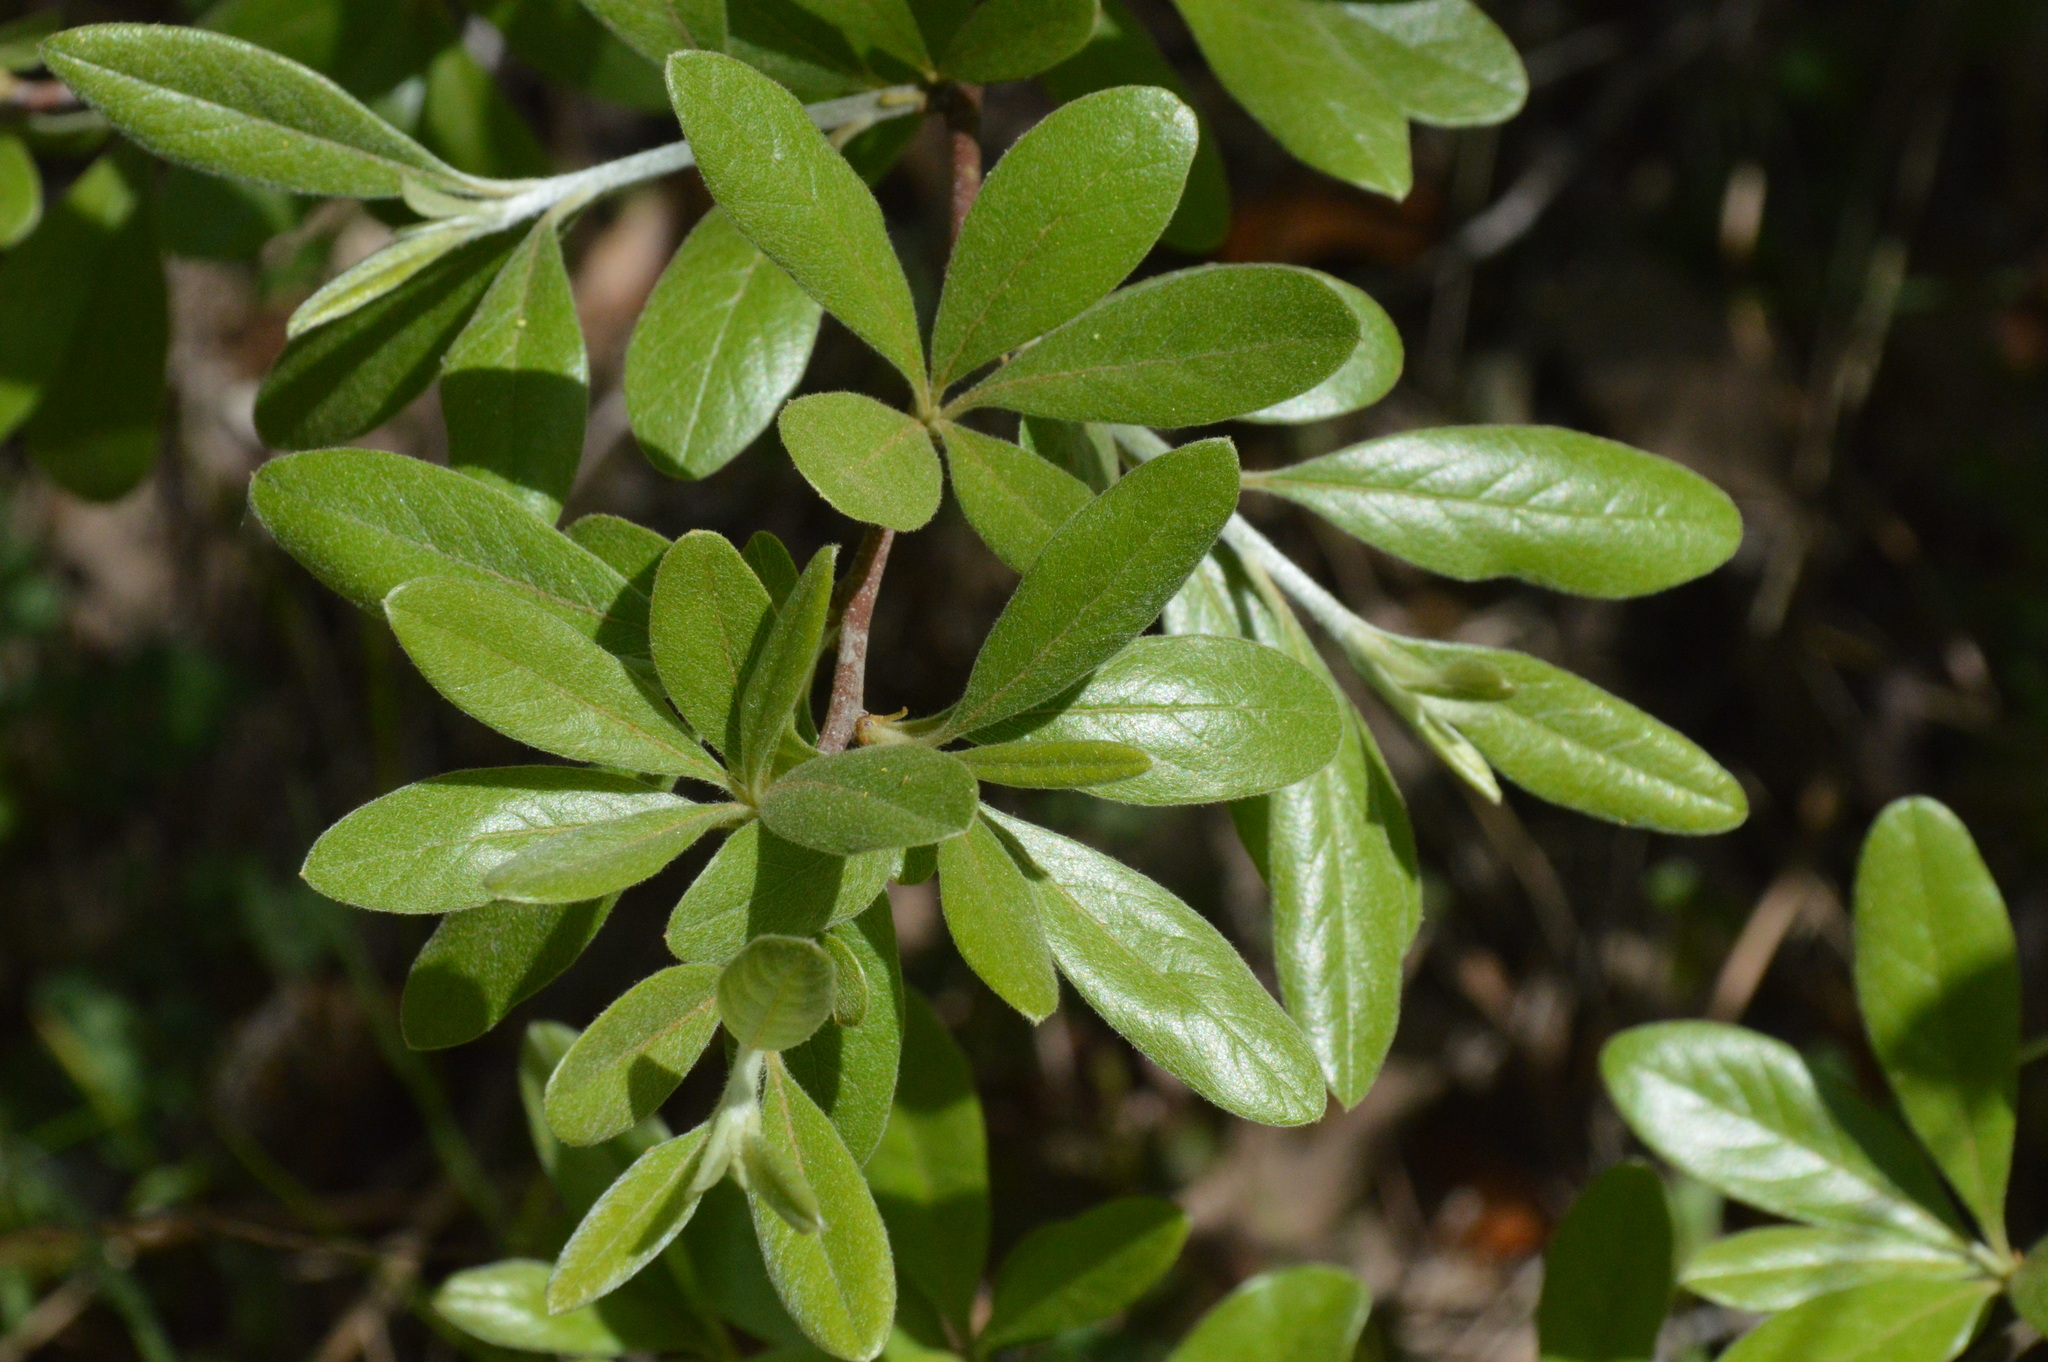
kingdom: Plantae
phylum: Tracheophyta
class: Magnoliopsida
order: Ericales
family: Sapotaceae
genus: Sideroxylon
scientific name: Sideroxylon lanuginosum
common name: Chittamwood
